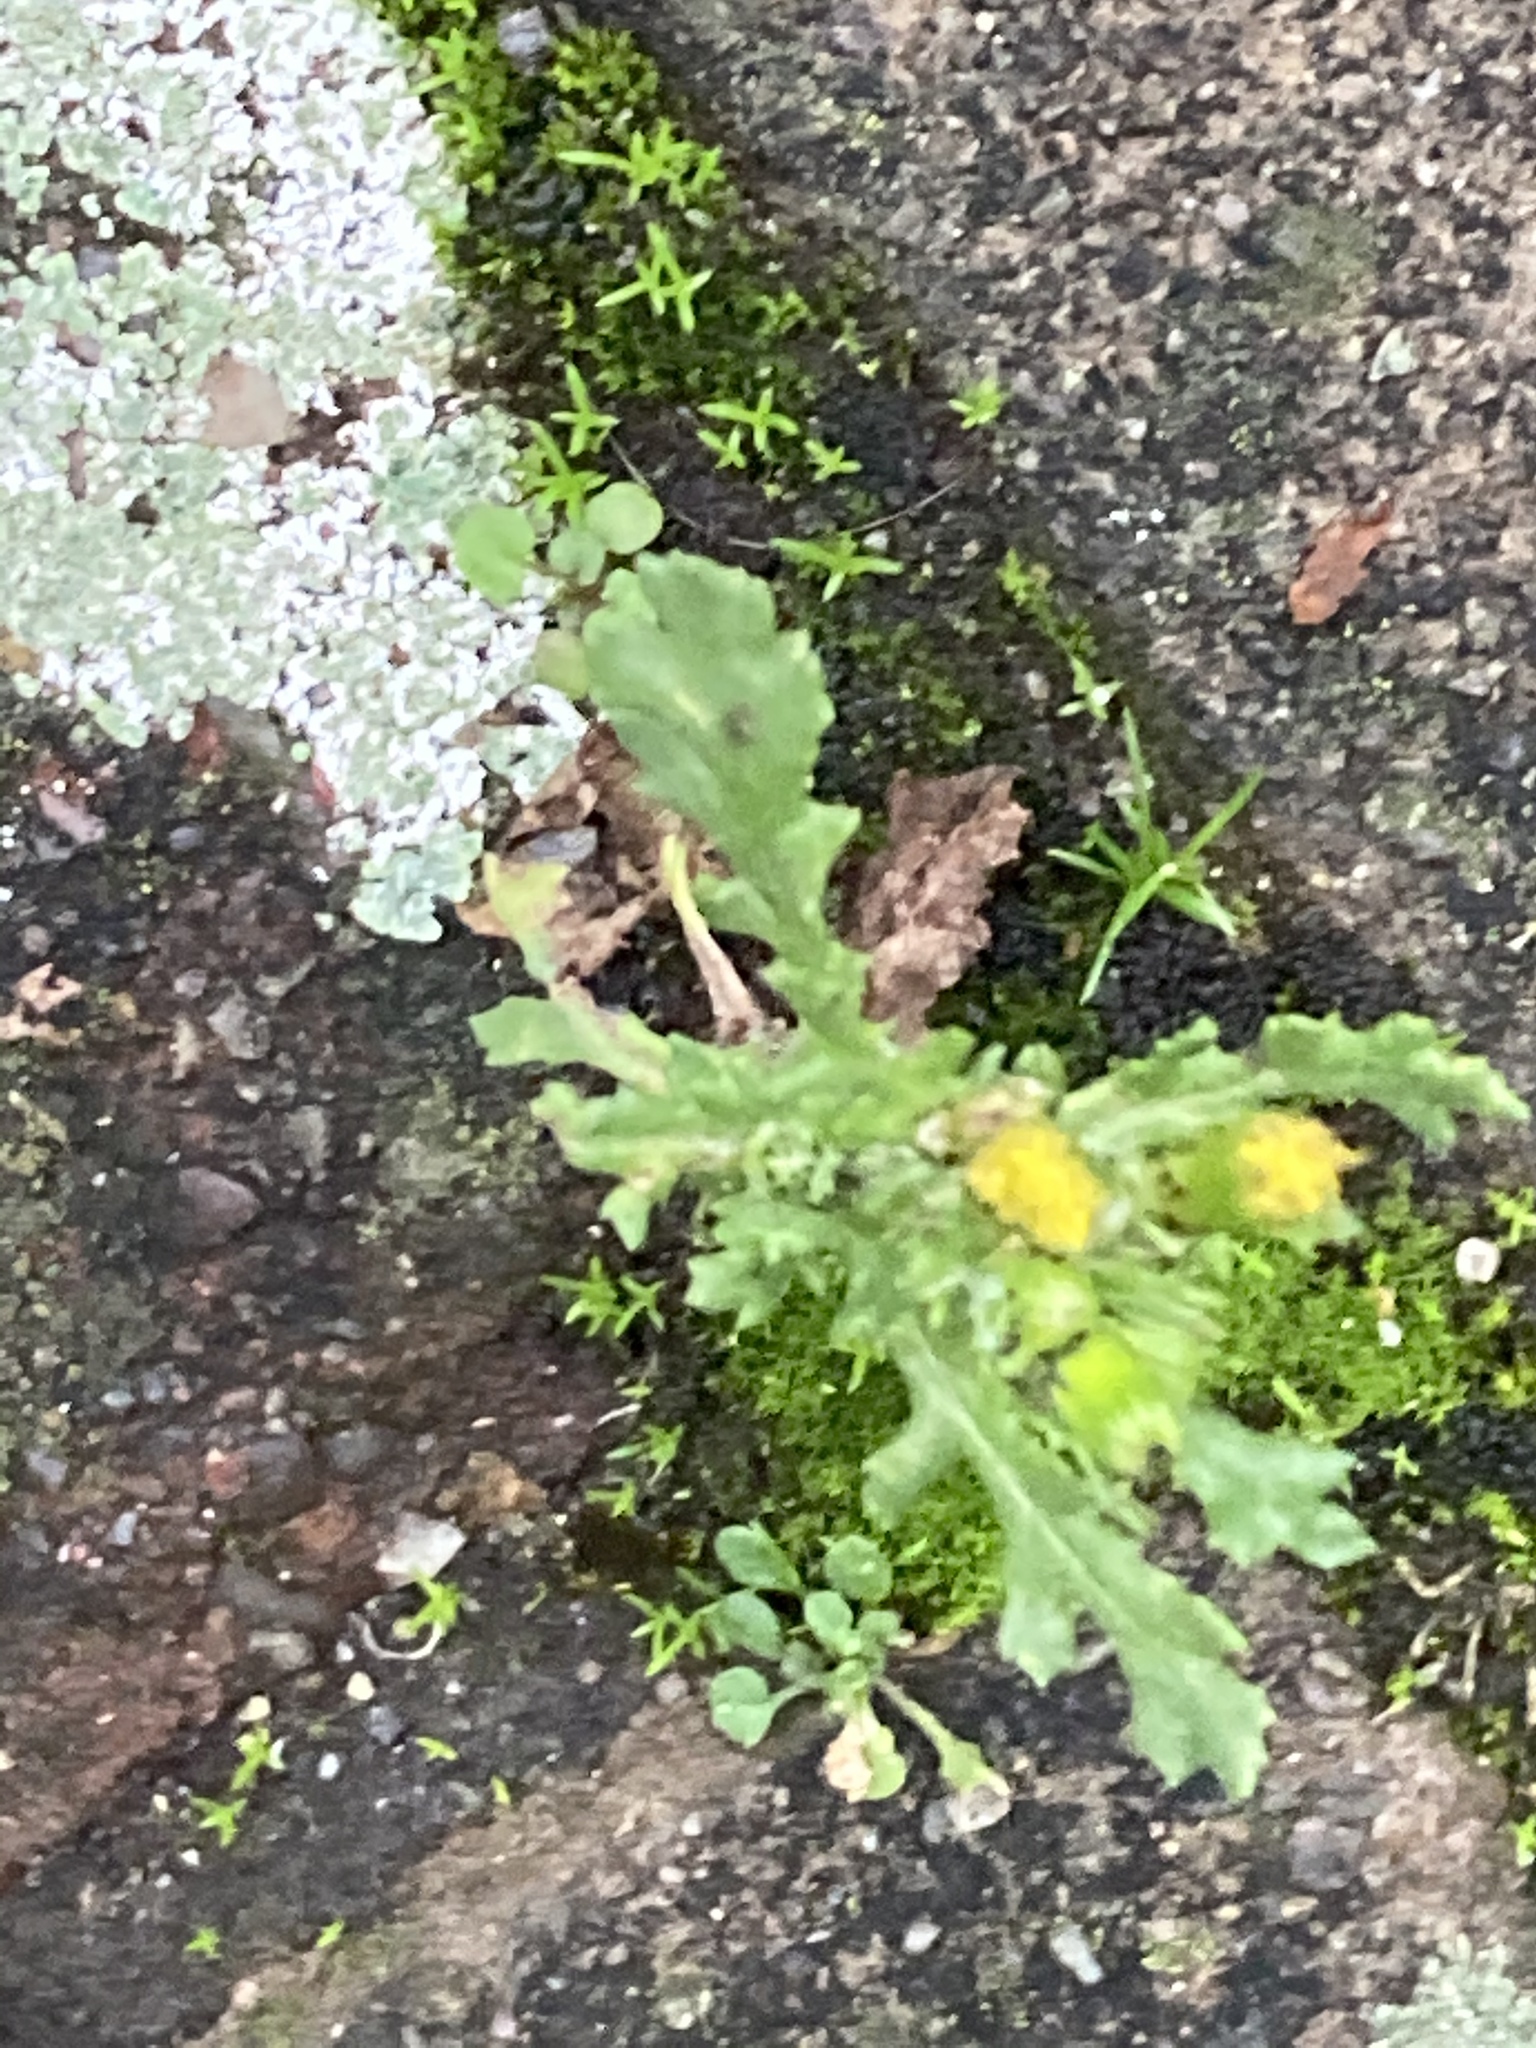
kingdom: Plantae
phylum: Tracheophyta
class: Magnoliopsida
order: Asterales
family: Asteraceae
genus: Senecio
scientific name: Senecio vulgaris
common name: Old-man-in-the-spring
